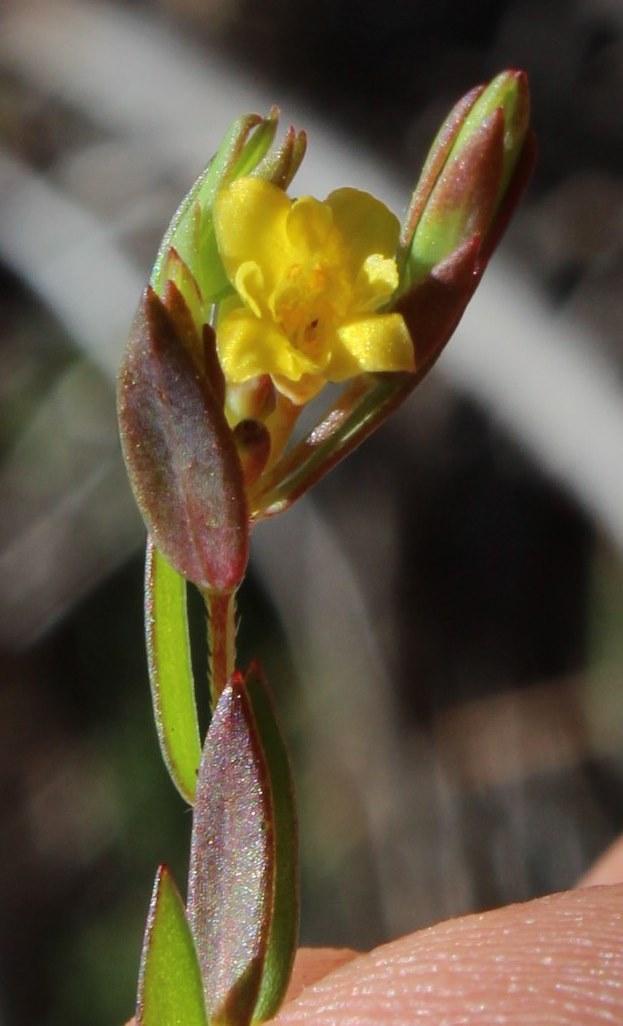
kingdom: Plantae
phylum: Tracheophyta
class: Magnoliopsida
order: Malvales
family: Thymelaeaceae
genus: Gnidia
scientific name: Gnidia juniperifolia
